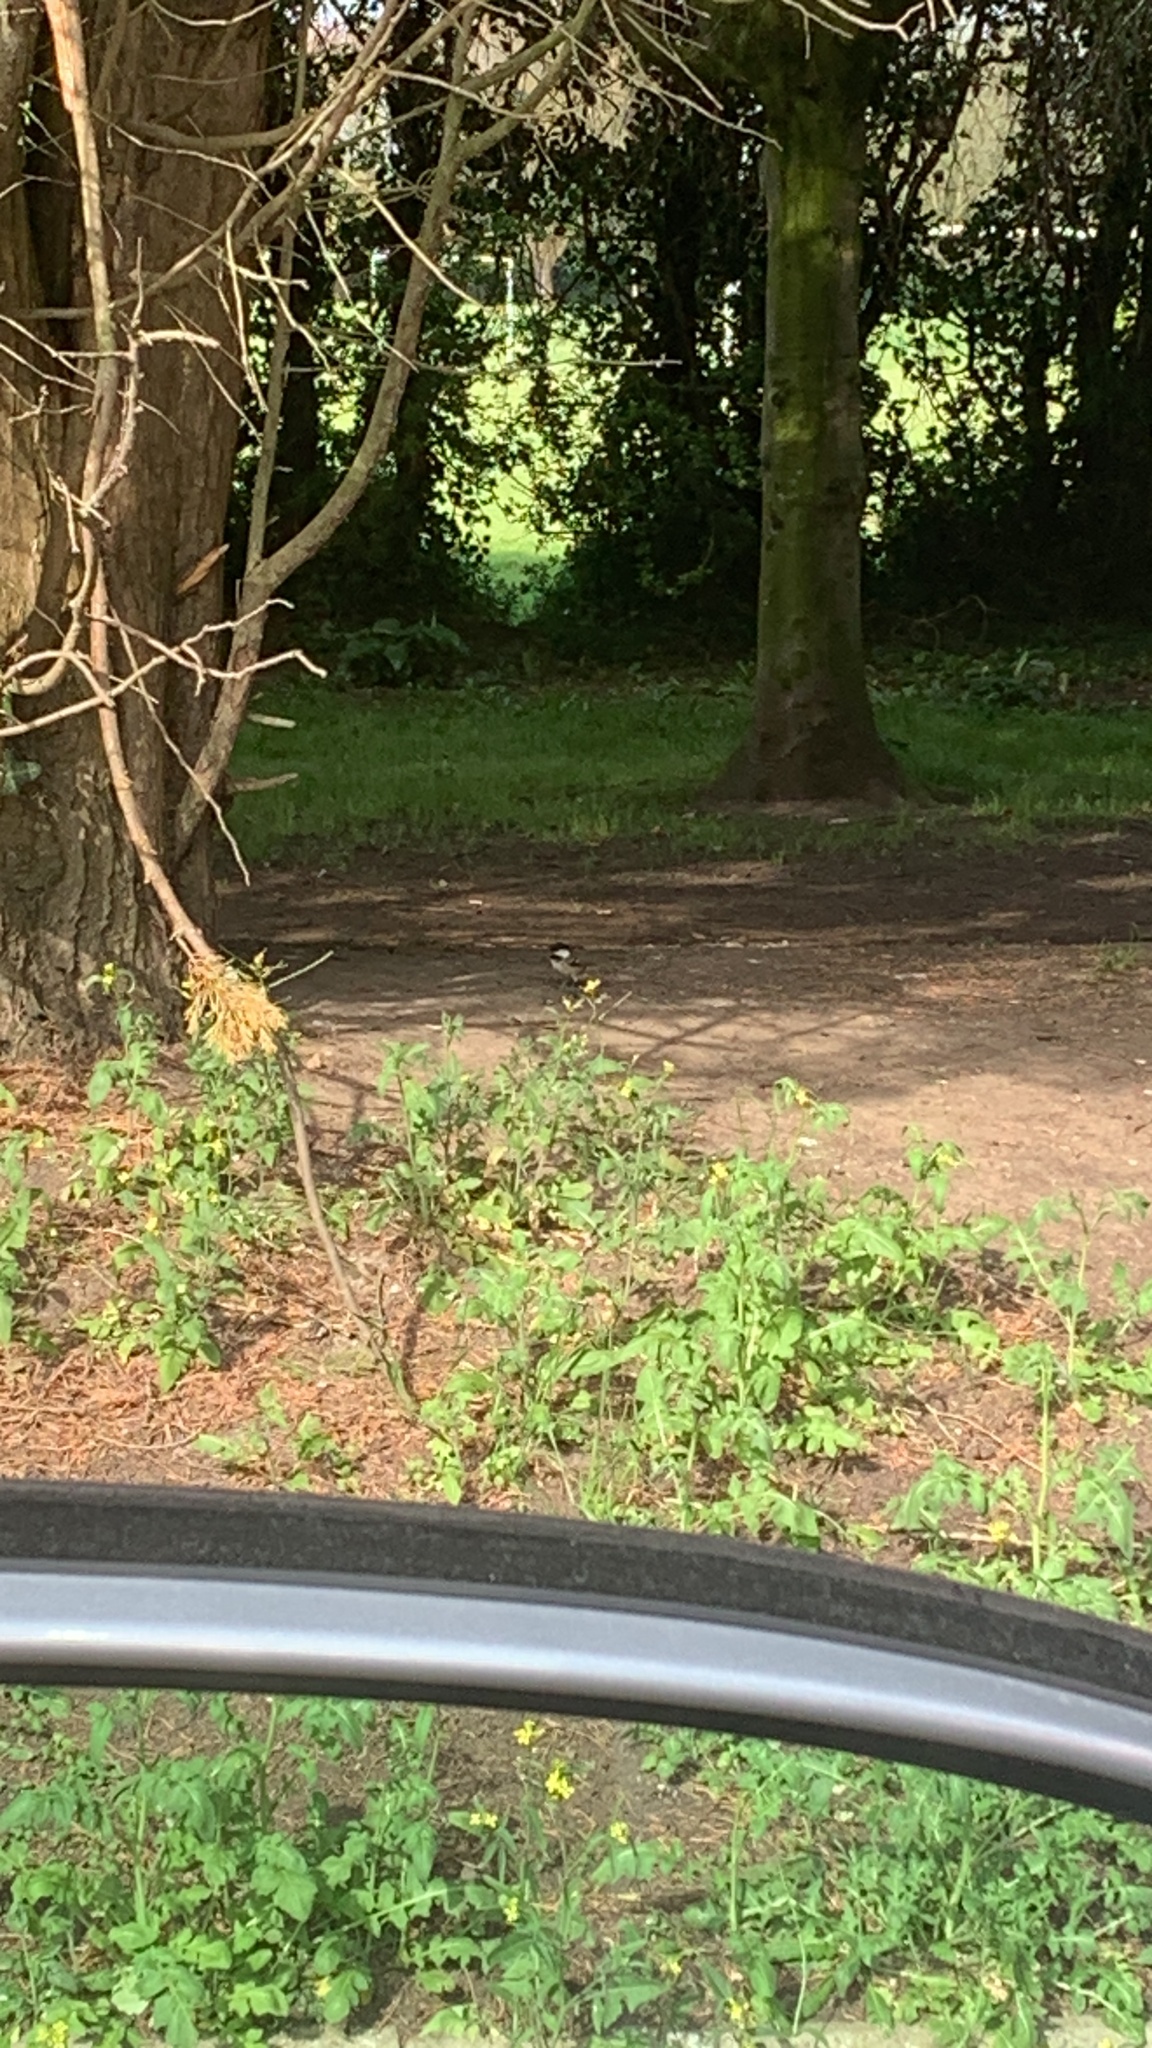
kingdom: Animalia
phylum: Chordata
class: Aves
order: Passeriformes
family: Paridae
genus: Periparus
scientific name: Periparus ater
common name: Coal tit
